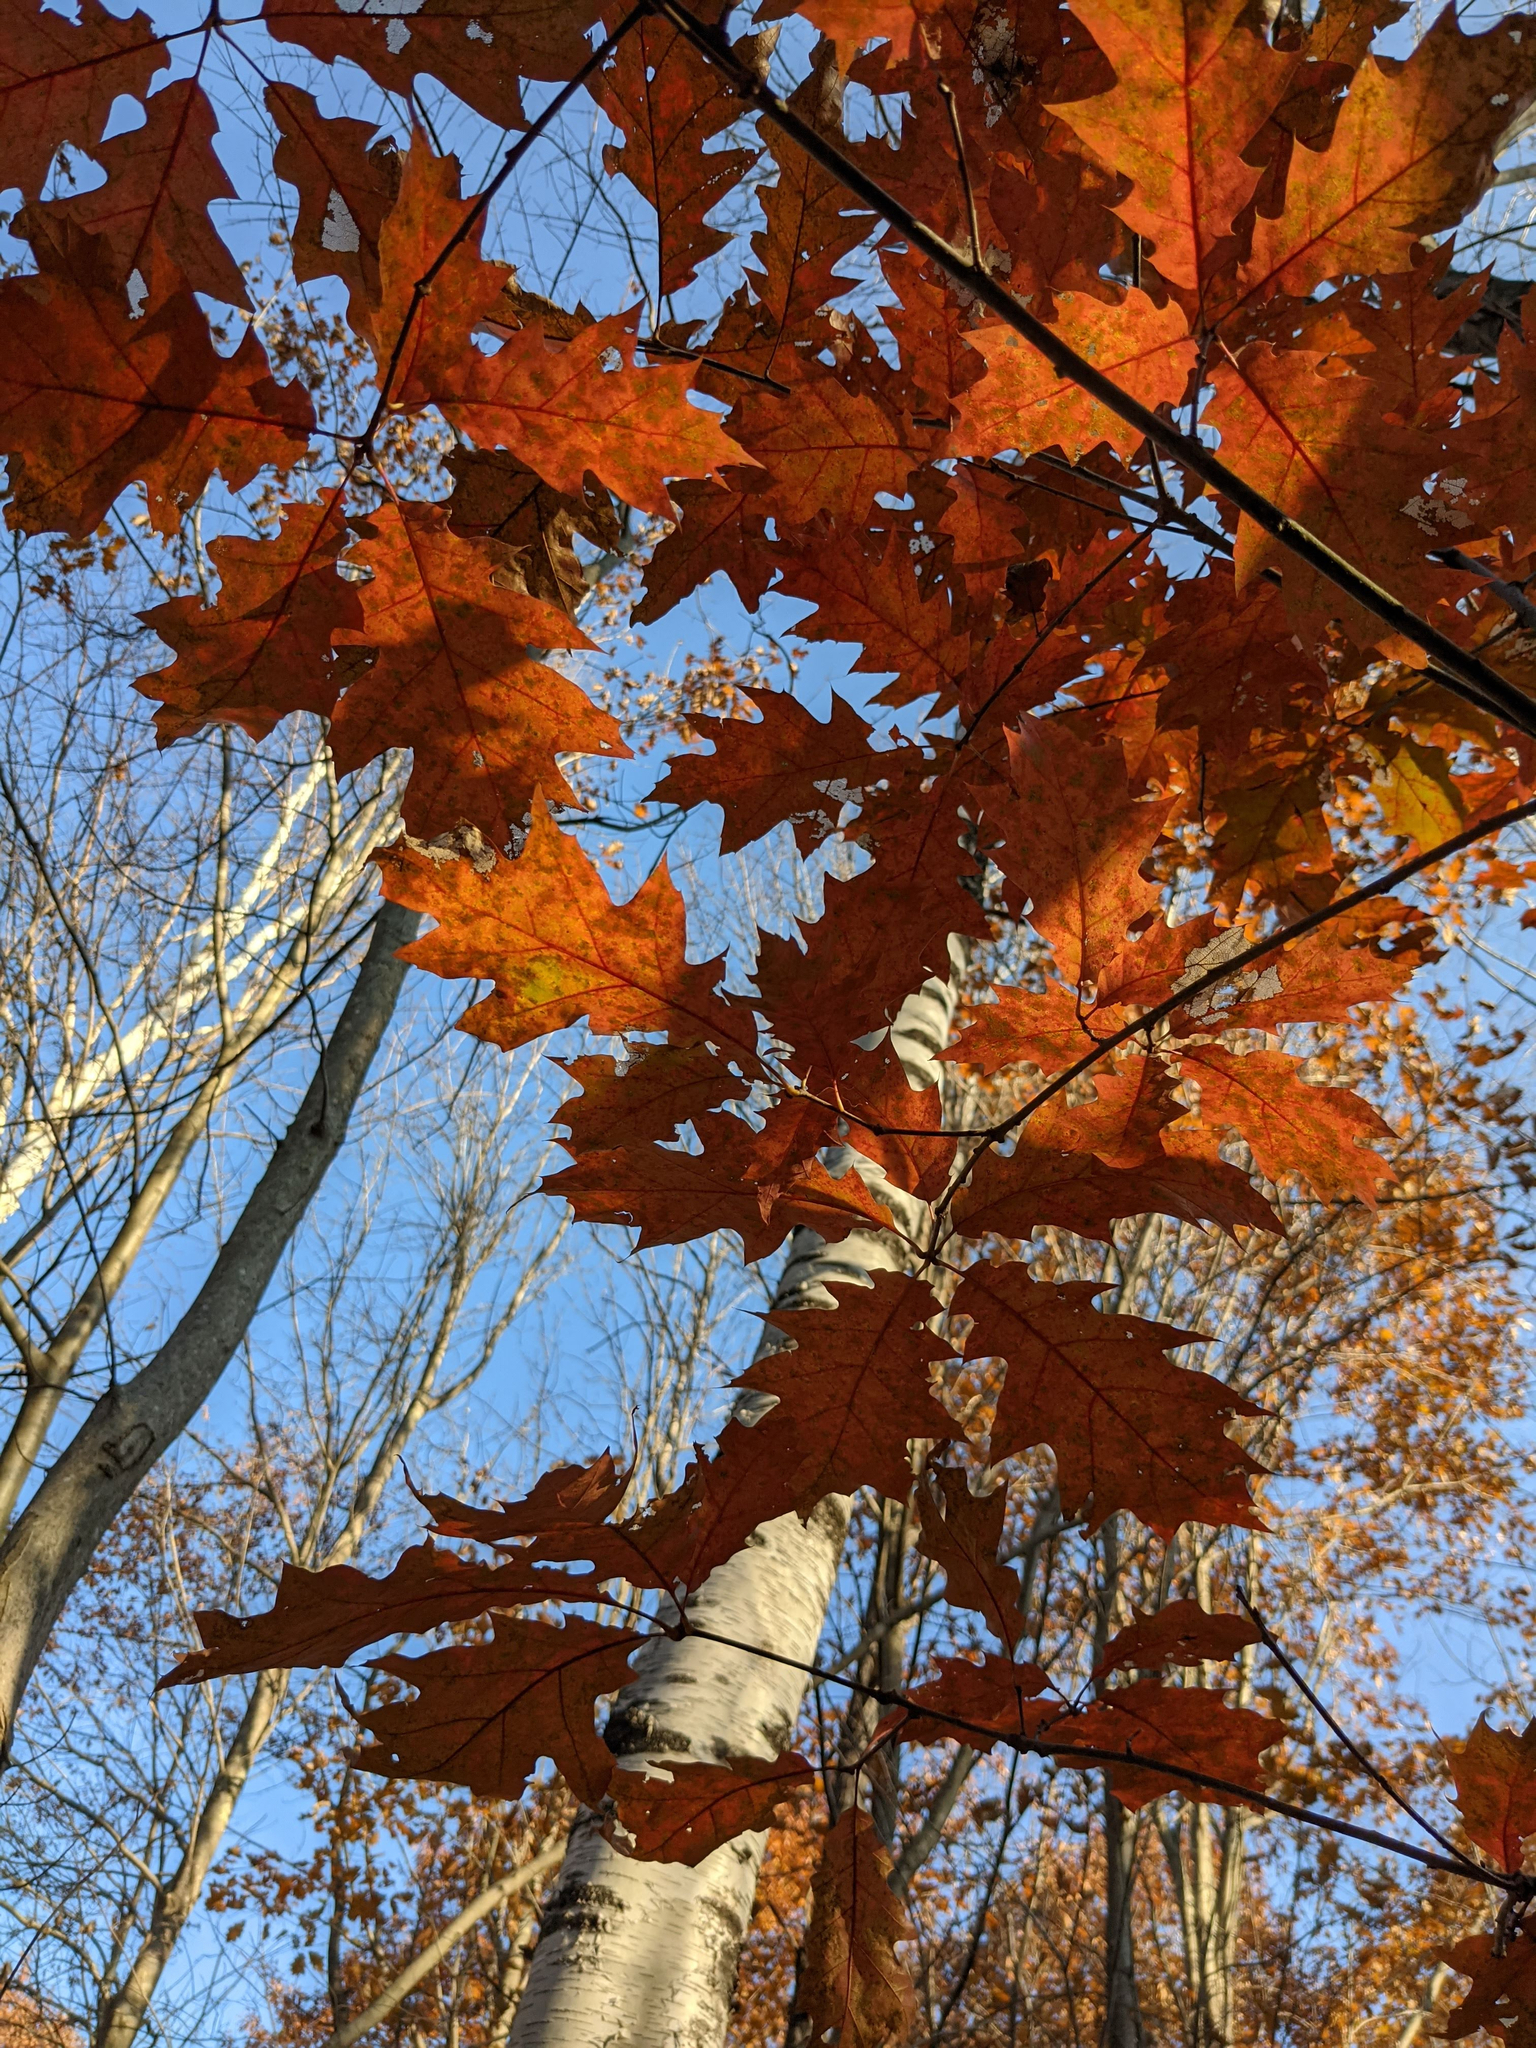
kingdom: Plantae
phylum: Tracheophyta
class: Magnoliopsida
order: Fagales
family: Fagaceae
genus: Quercus
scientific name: Quercus rubra
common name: Red oak
